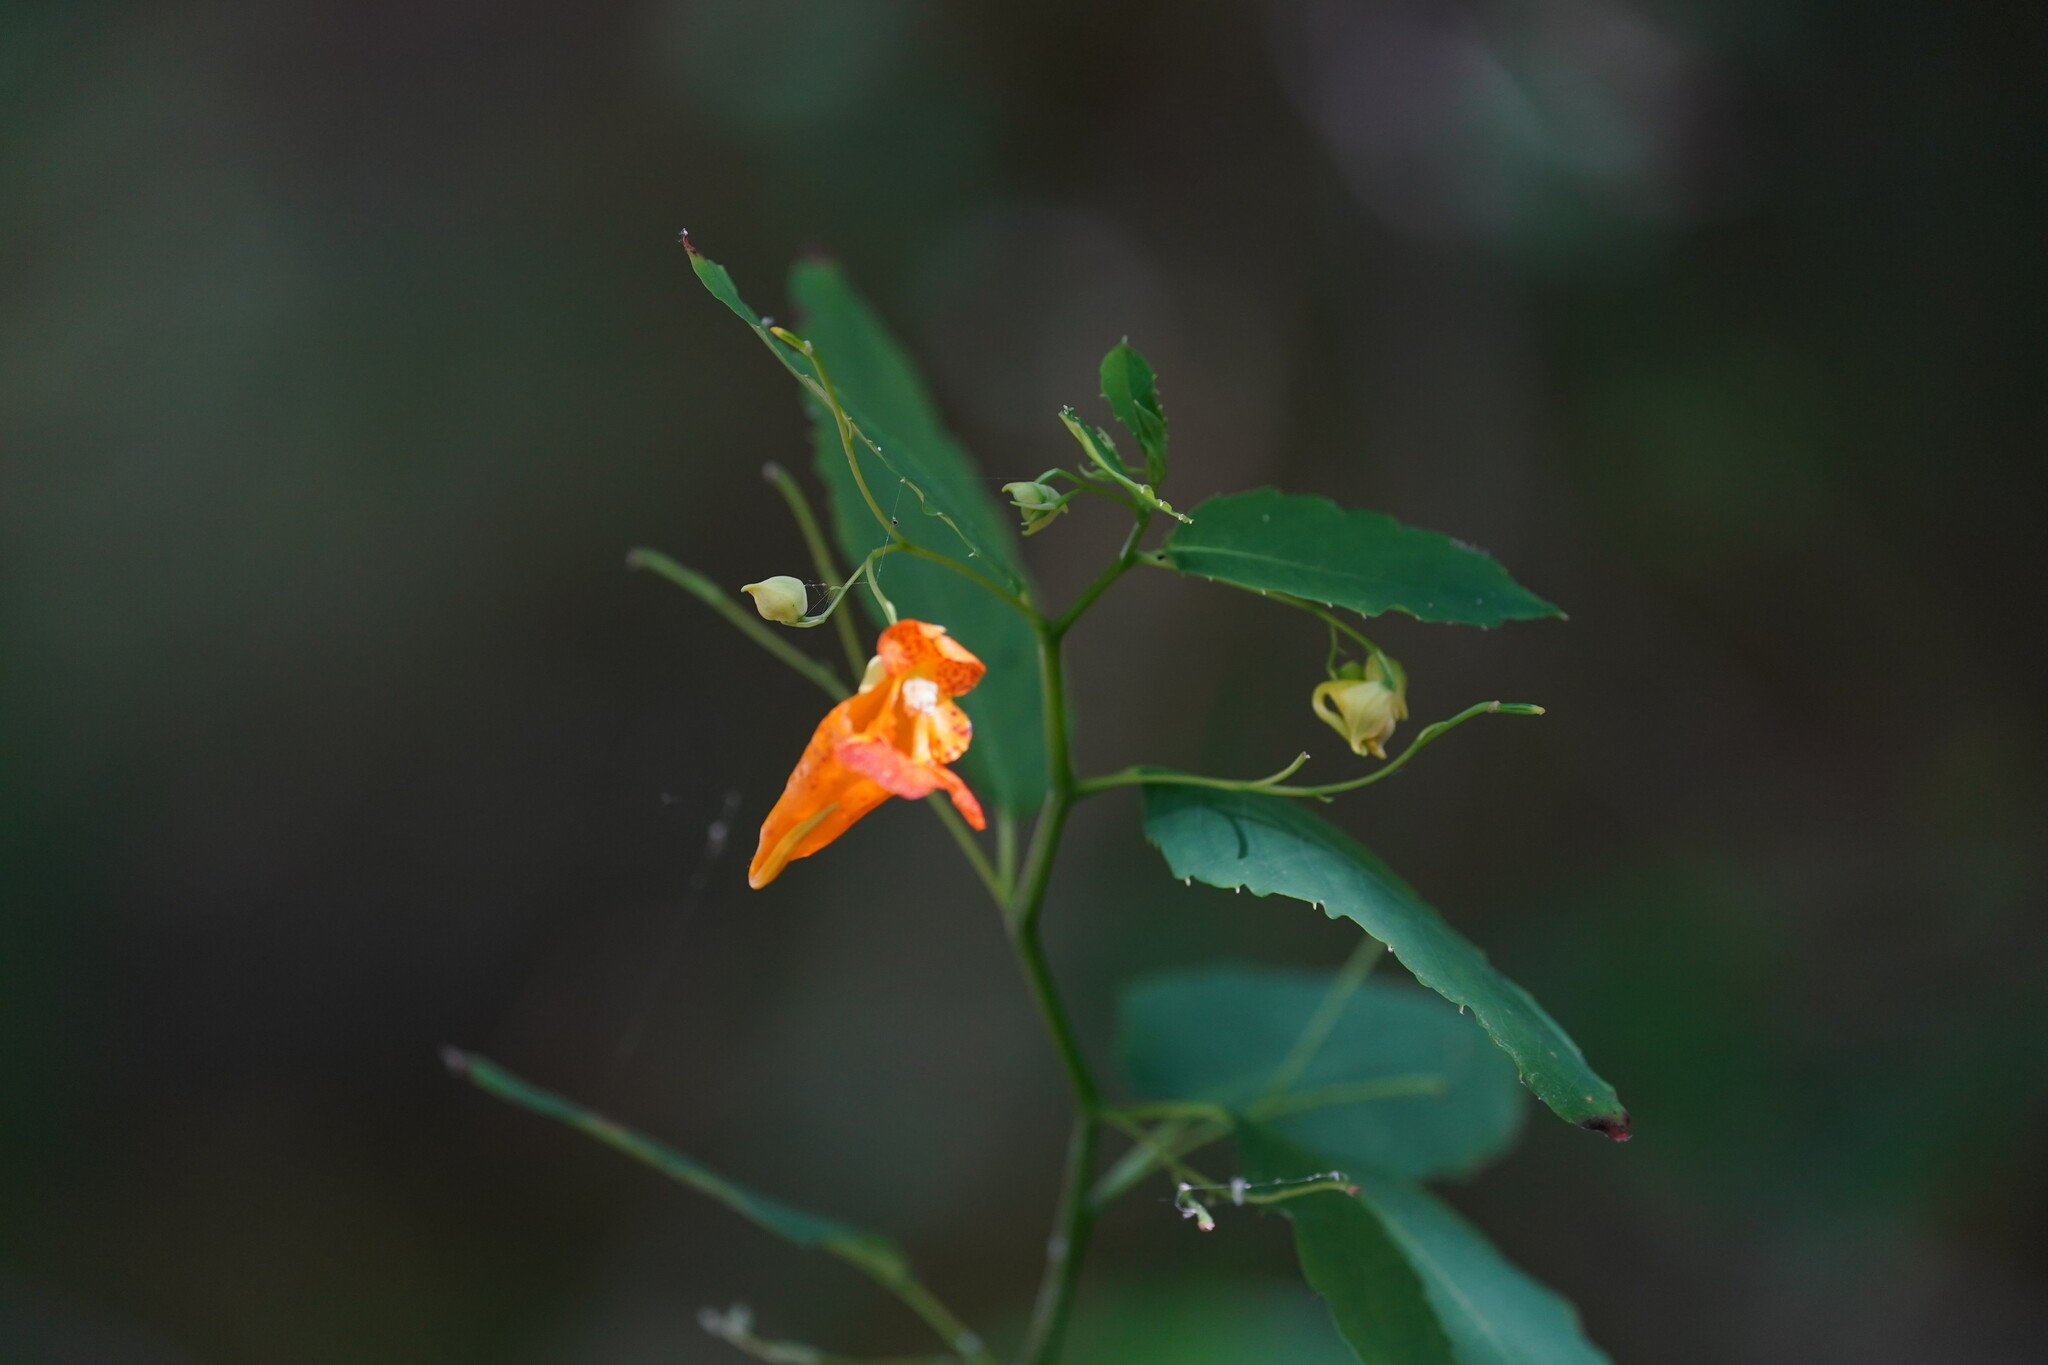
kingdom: Plantae
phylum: Tracheophyta
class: Magnoliopsida
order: Ericales
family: Balsaminaceae
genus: Impatiens
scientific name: Impatiens capensis
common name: Orange balsam
